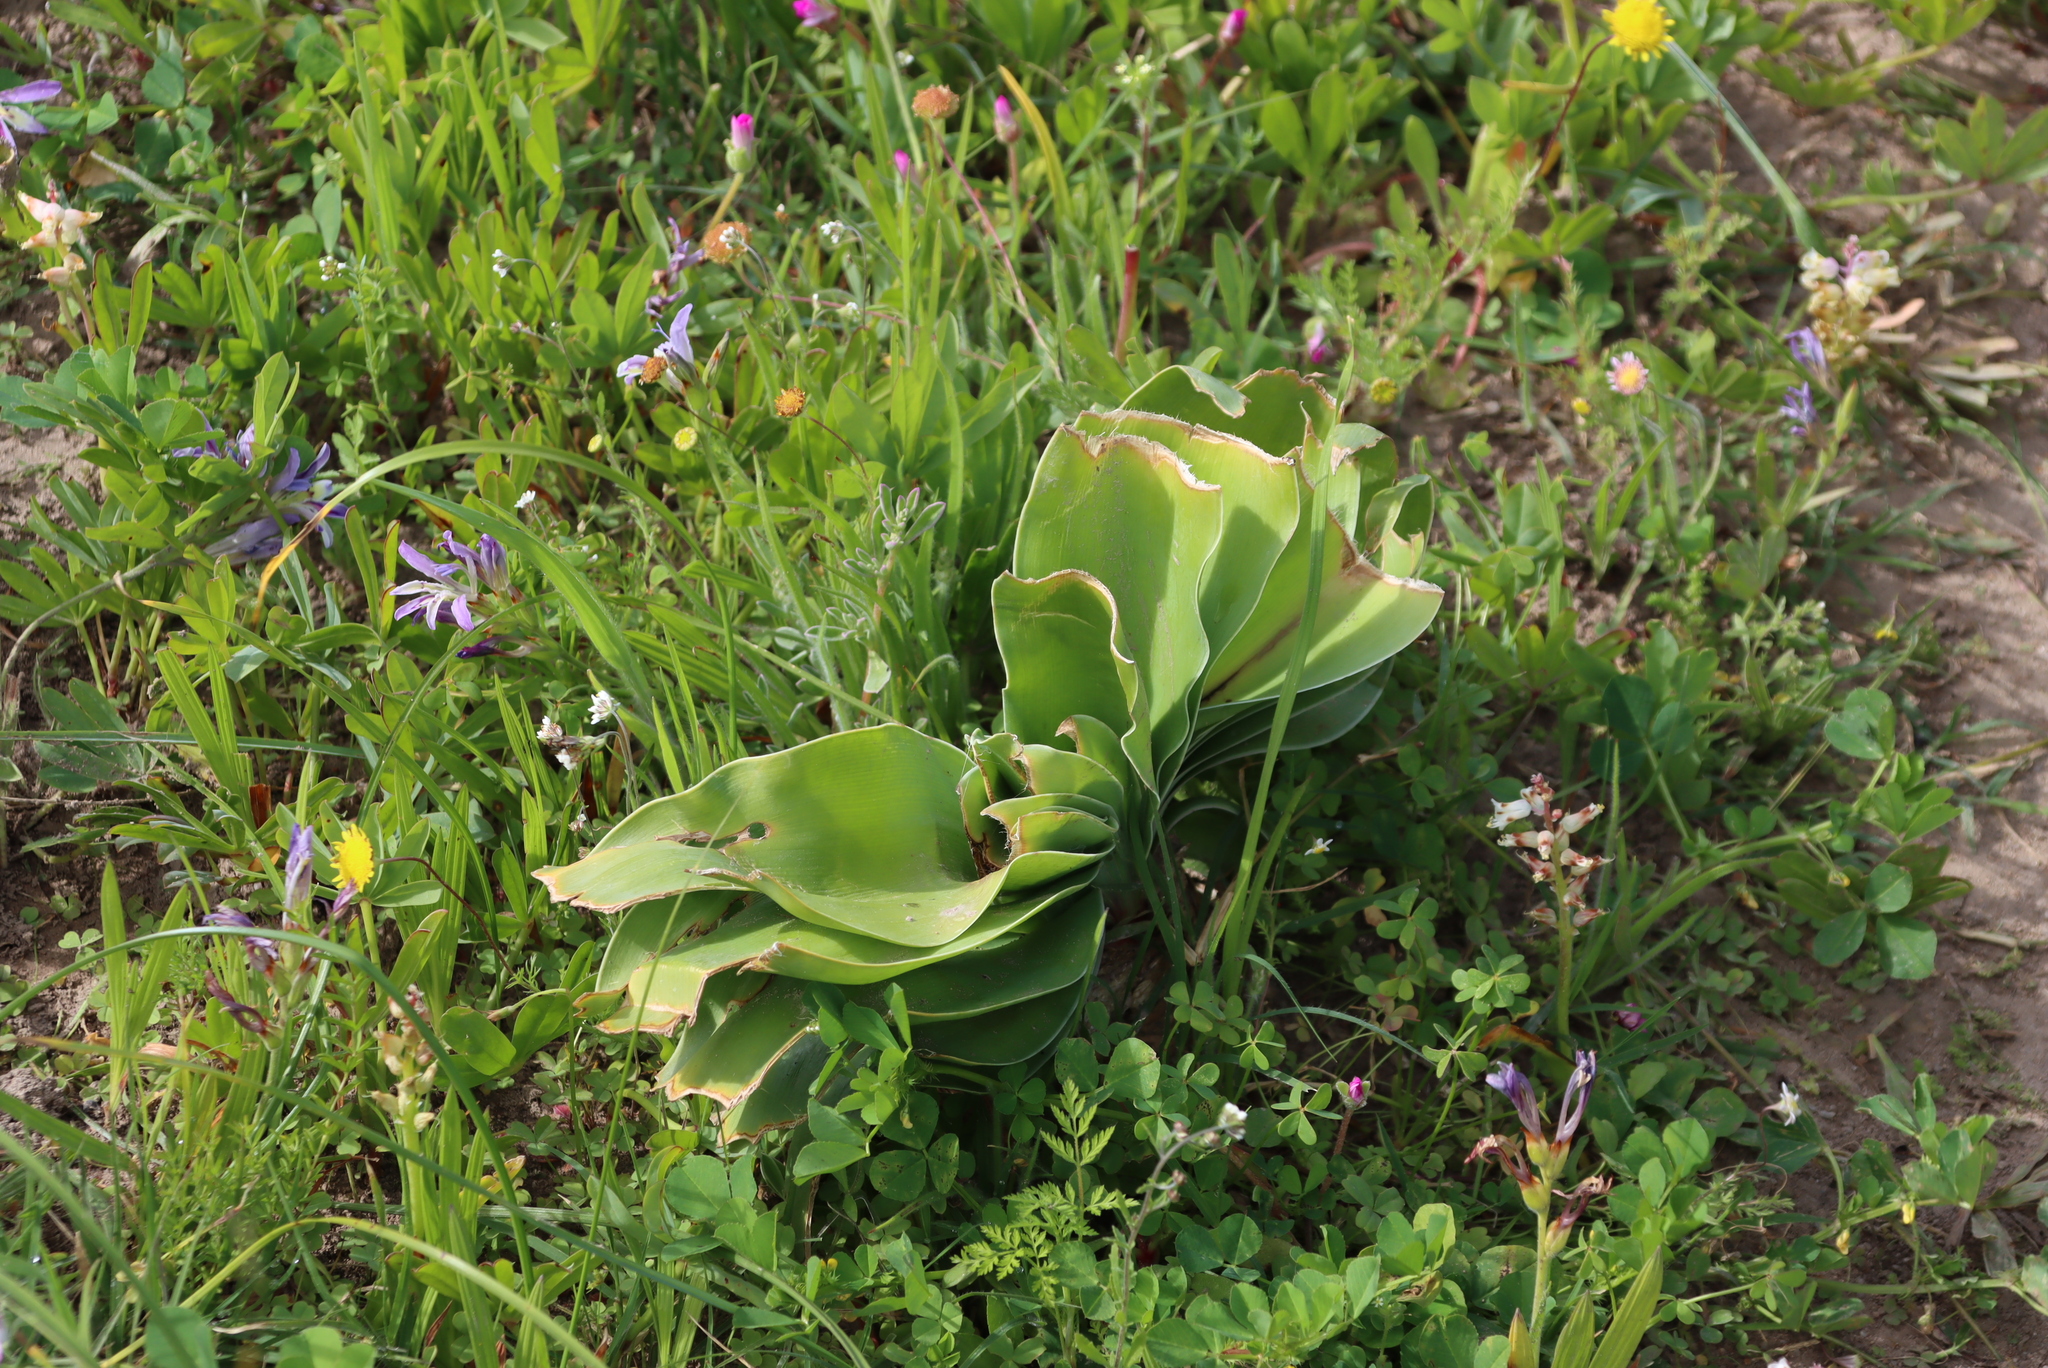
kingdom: Plantae
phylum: Tracheophyta
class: Liliopsida
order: Asparagales
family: Amaryllidaceae
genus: Boophone
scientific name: Boophone haemanthoides
